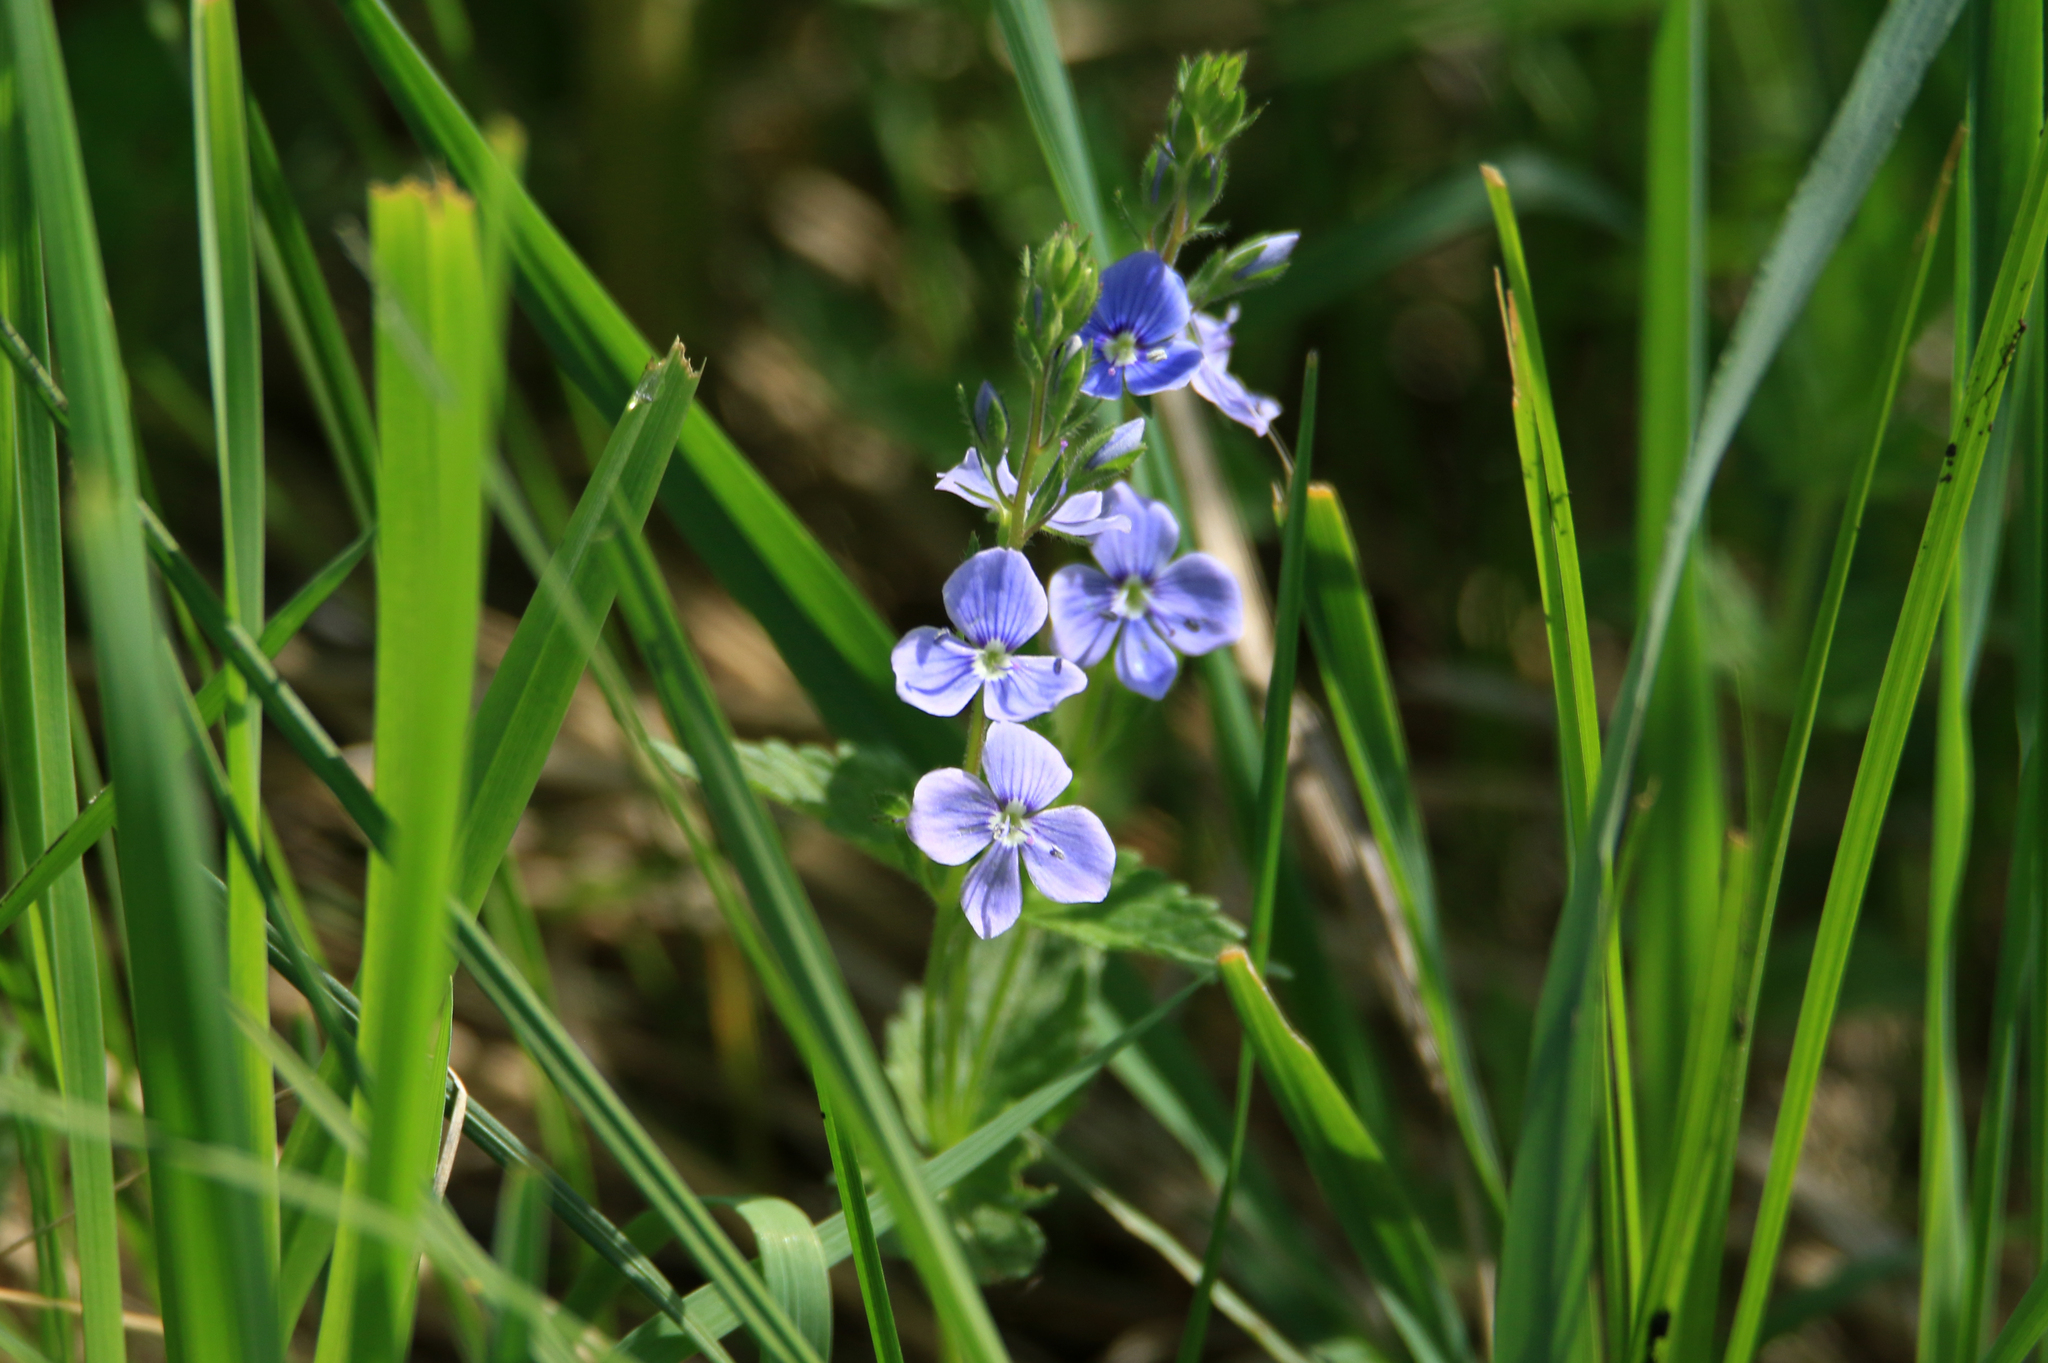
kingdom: Plantae
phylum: Tracheophyta
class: Magnoliopsida
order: Lamiales
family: Plantaginaceae
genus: Veronica
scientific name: Veronica chamaedrys
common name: Germander speedwell
